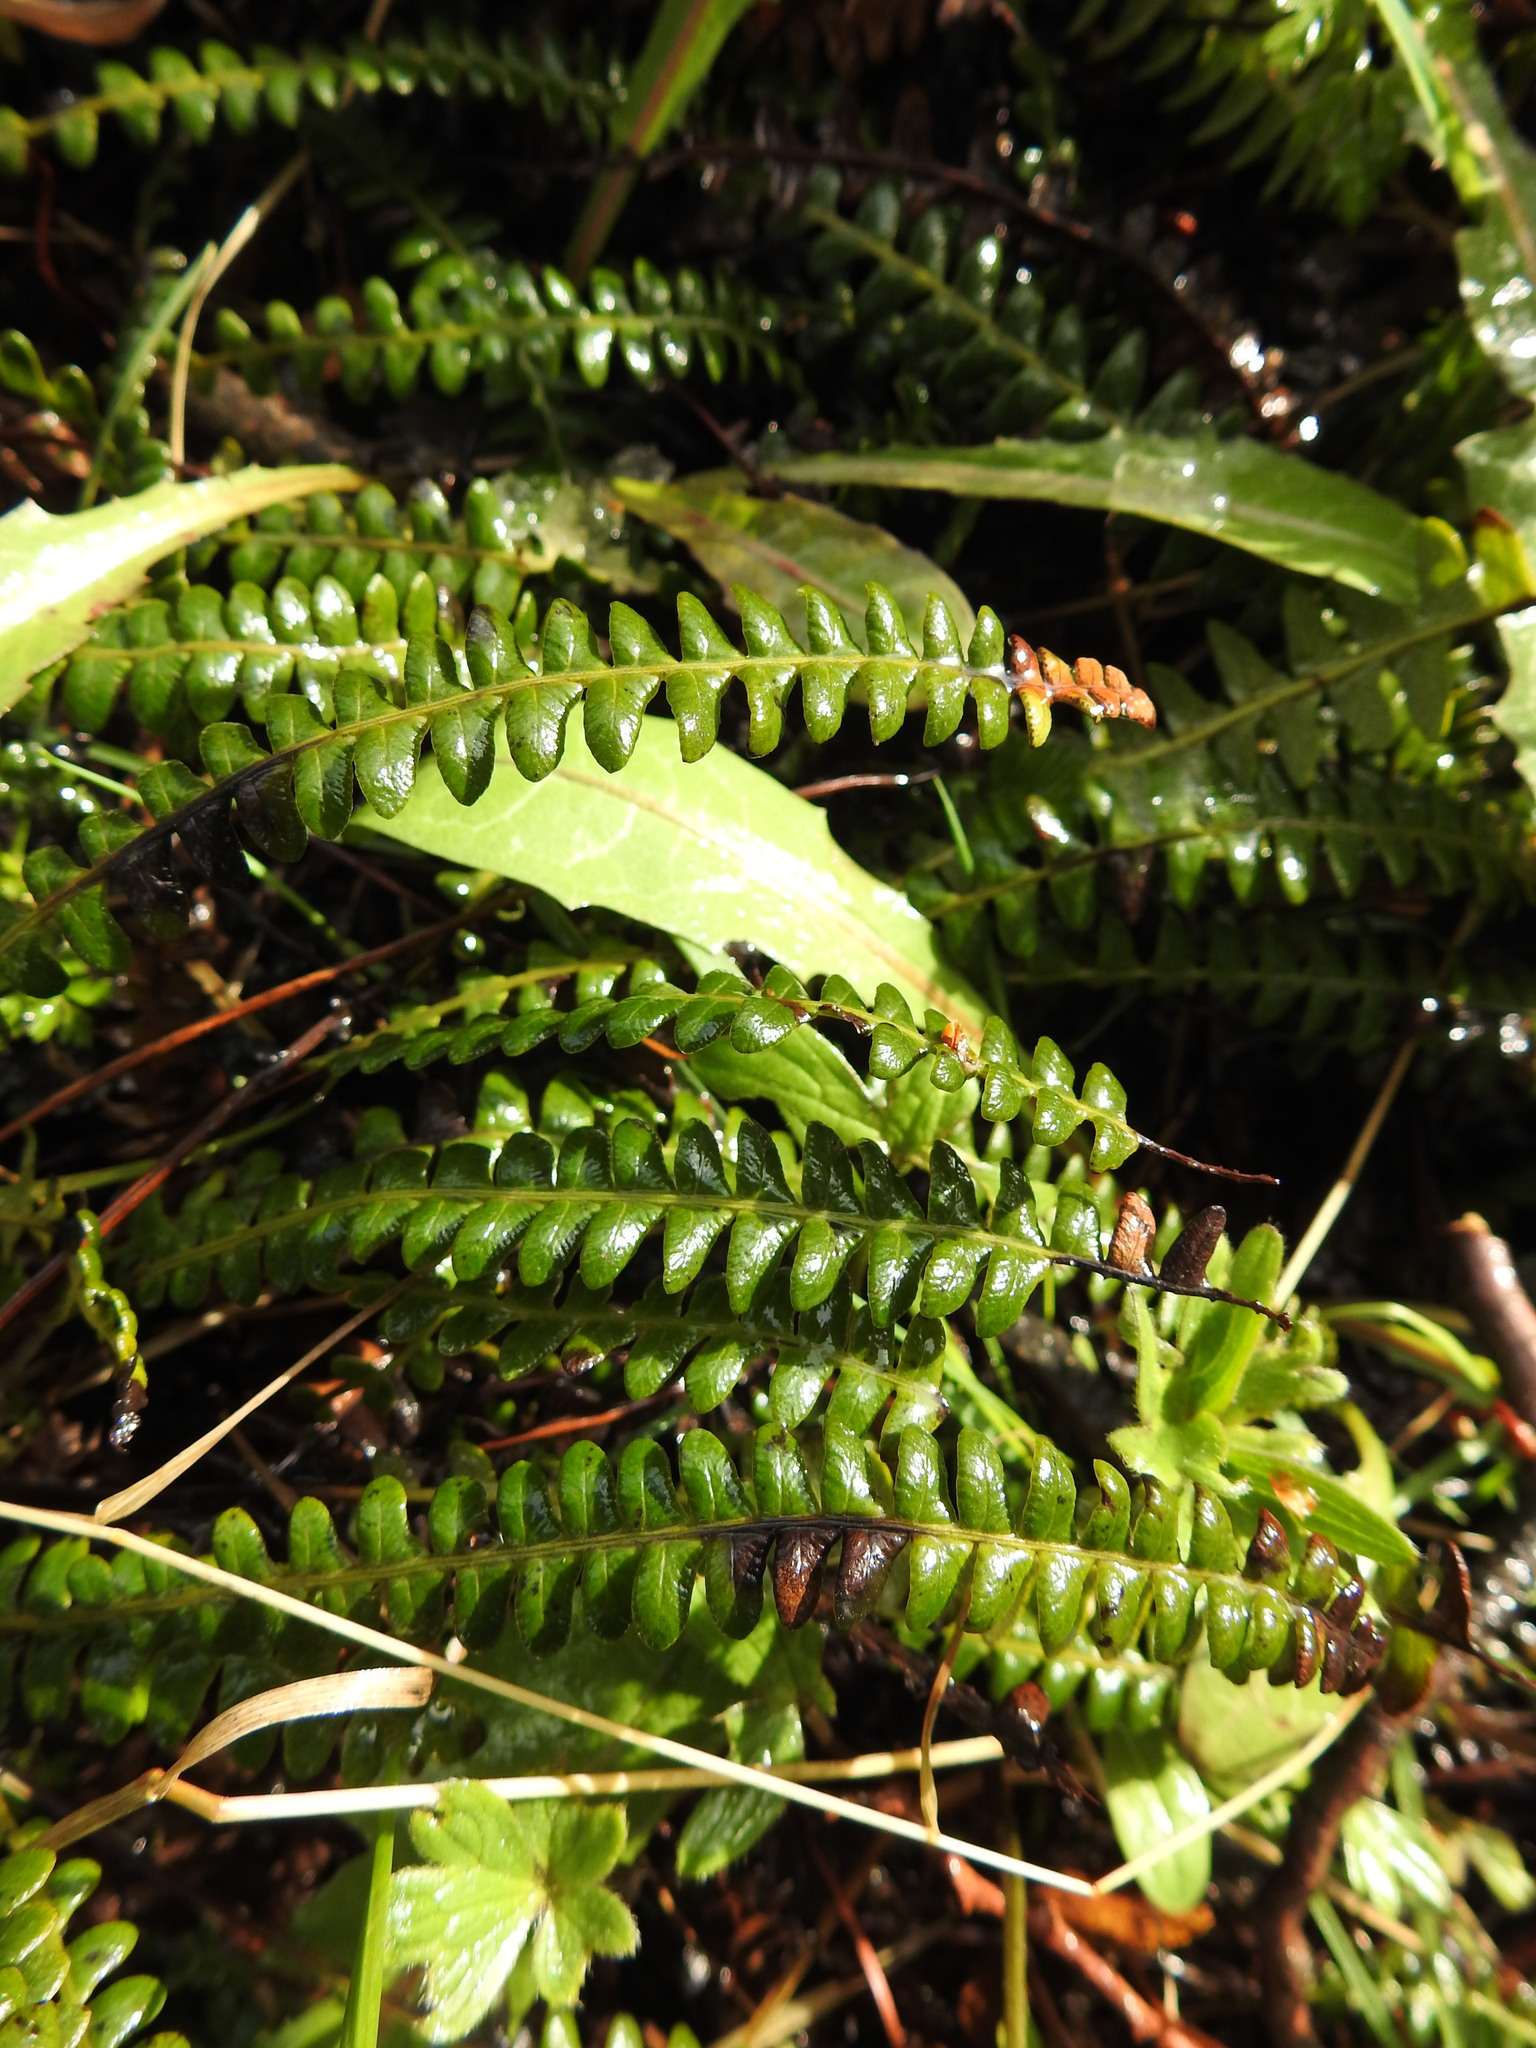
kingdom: Plantae
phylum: Tracheophyta
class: Polypodiopsida
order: Polypodiales
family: Blechnaceae
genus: Austroblechnum
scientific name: Austroblechnum penna-marina
